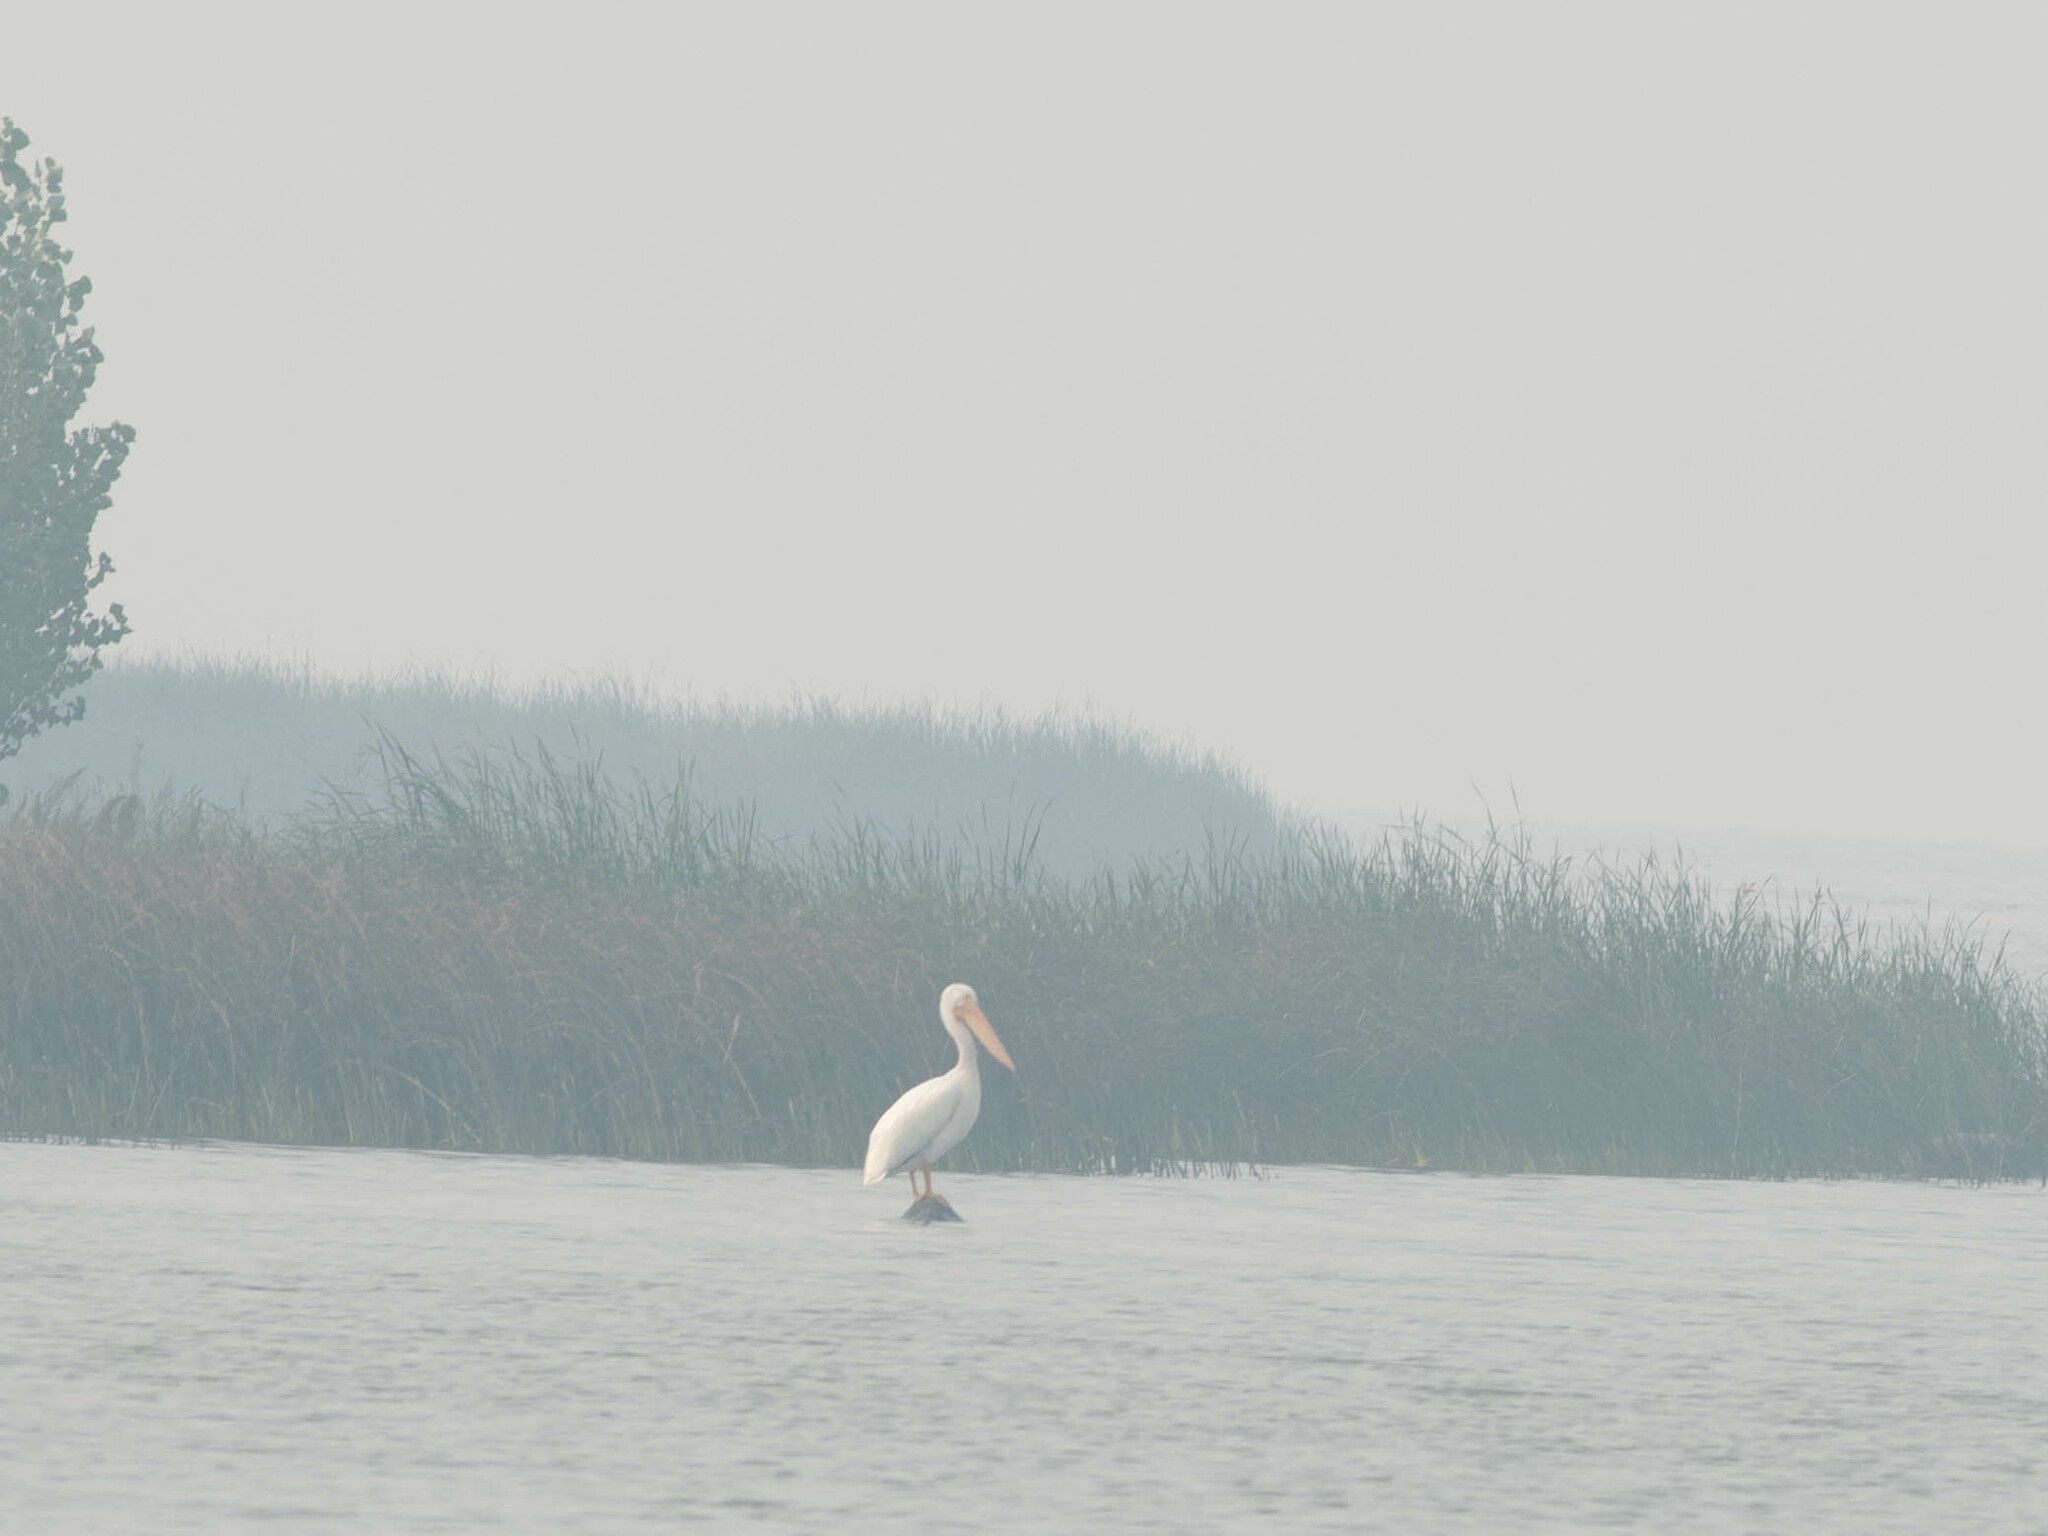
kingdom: Animalia
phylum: Chordata
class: Aves
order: Pelecaniformes
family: Pelecanidae
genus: Pelecanus
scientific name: Pelecanus erythrorhynchos
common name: American white pelican
